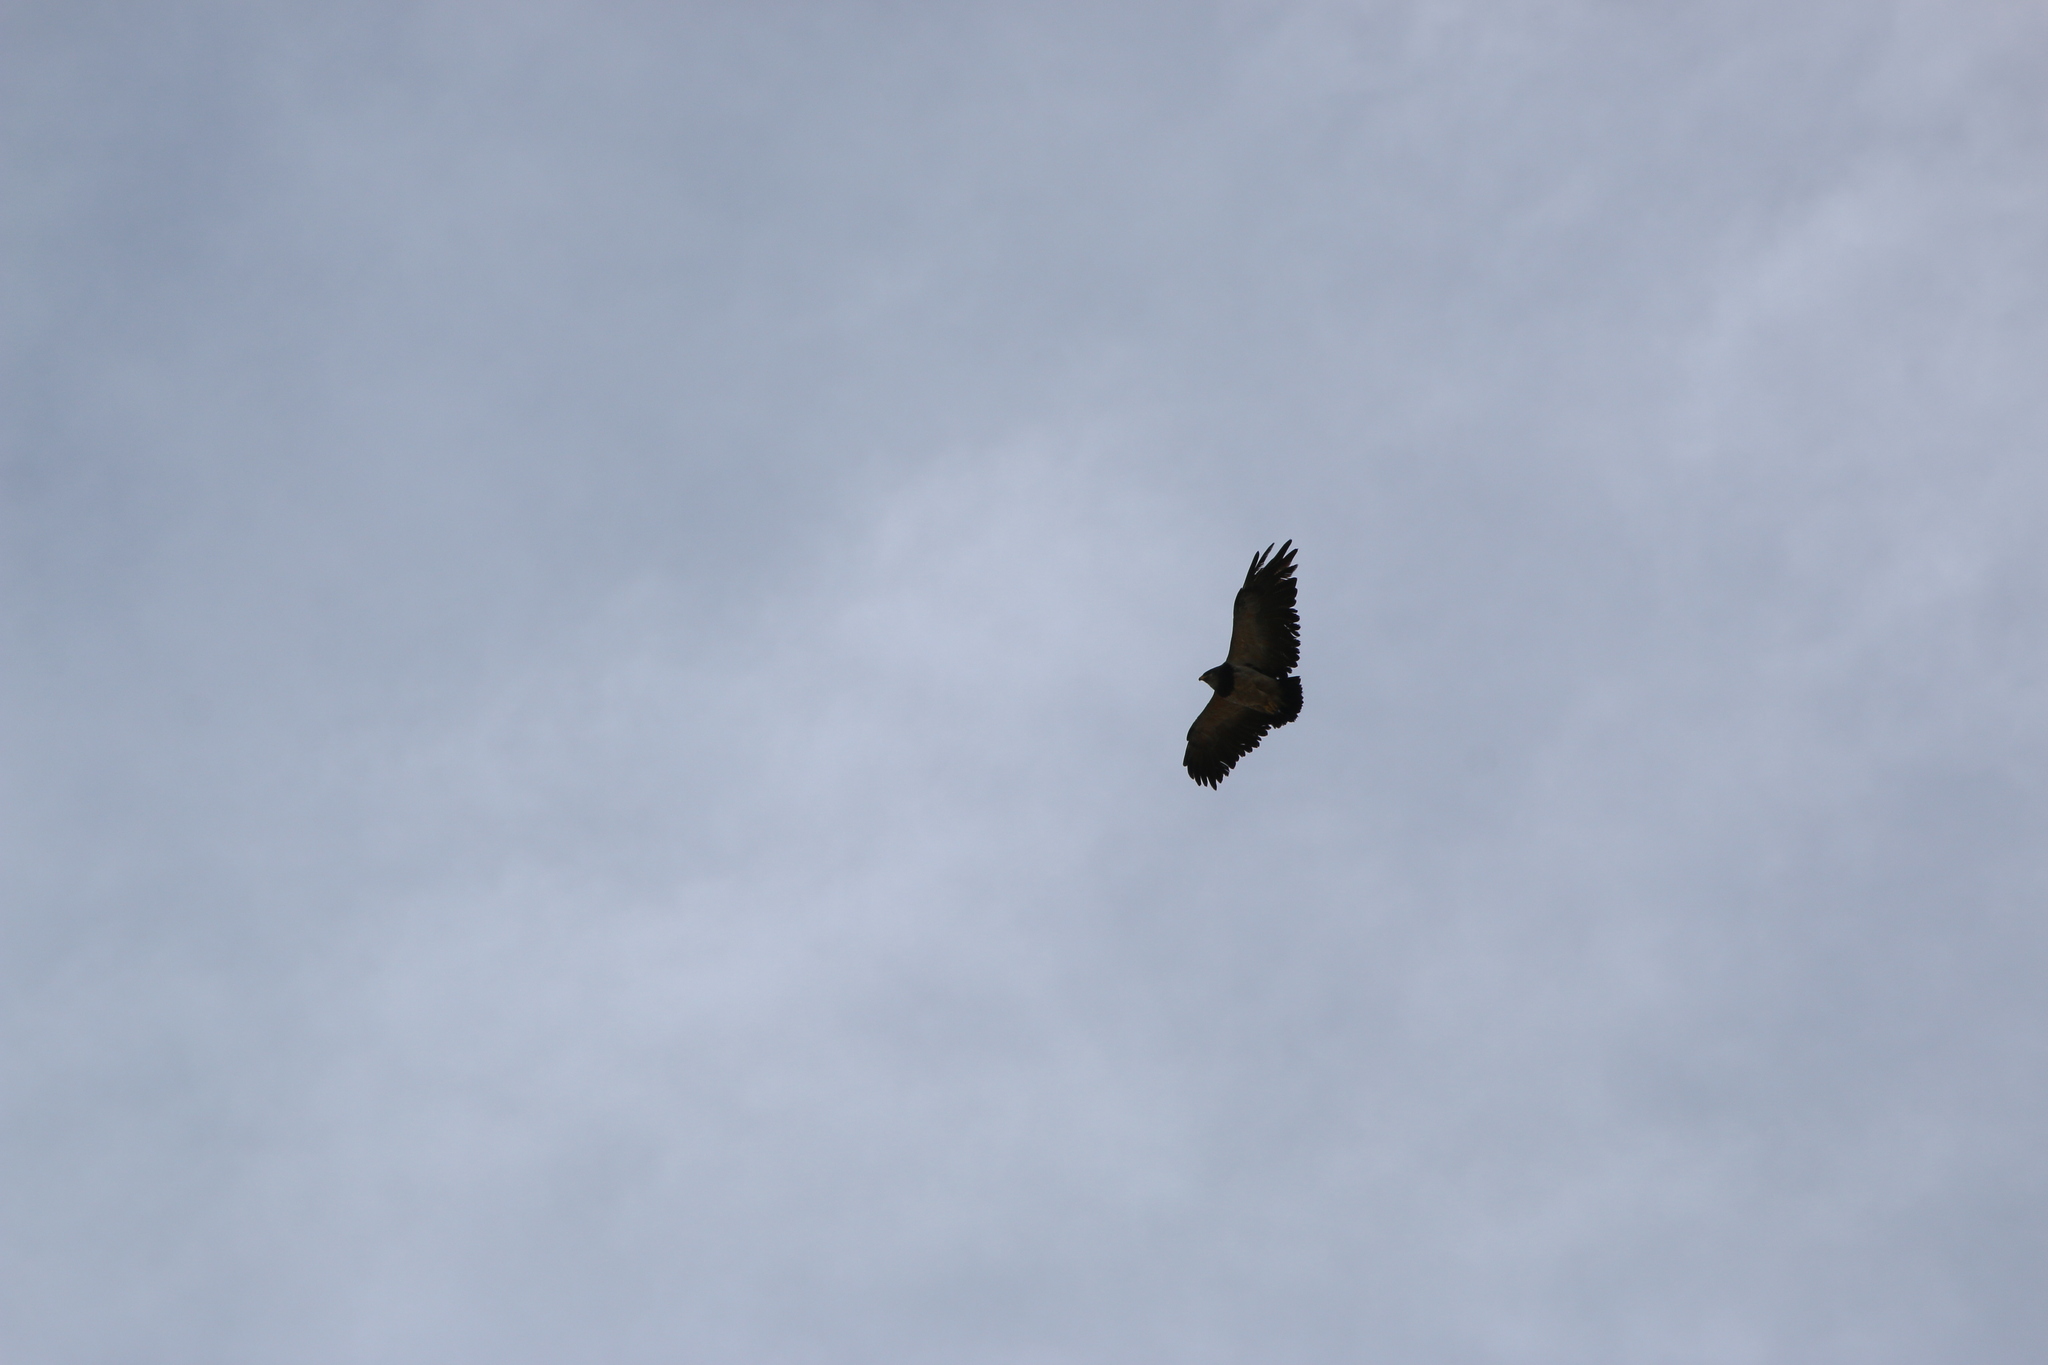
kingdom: Animalia
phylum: Chordata
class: Aves
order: Accipitriformes
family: Accipitridae
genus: Geranoaetus
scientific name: Geranoaetus melanoleucus
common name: Black-chested buzzard-eagle
